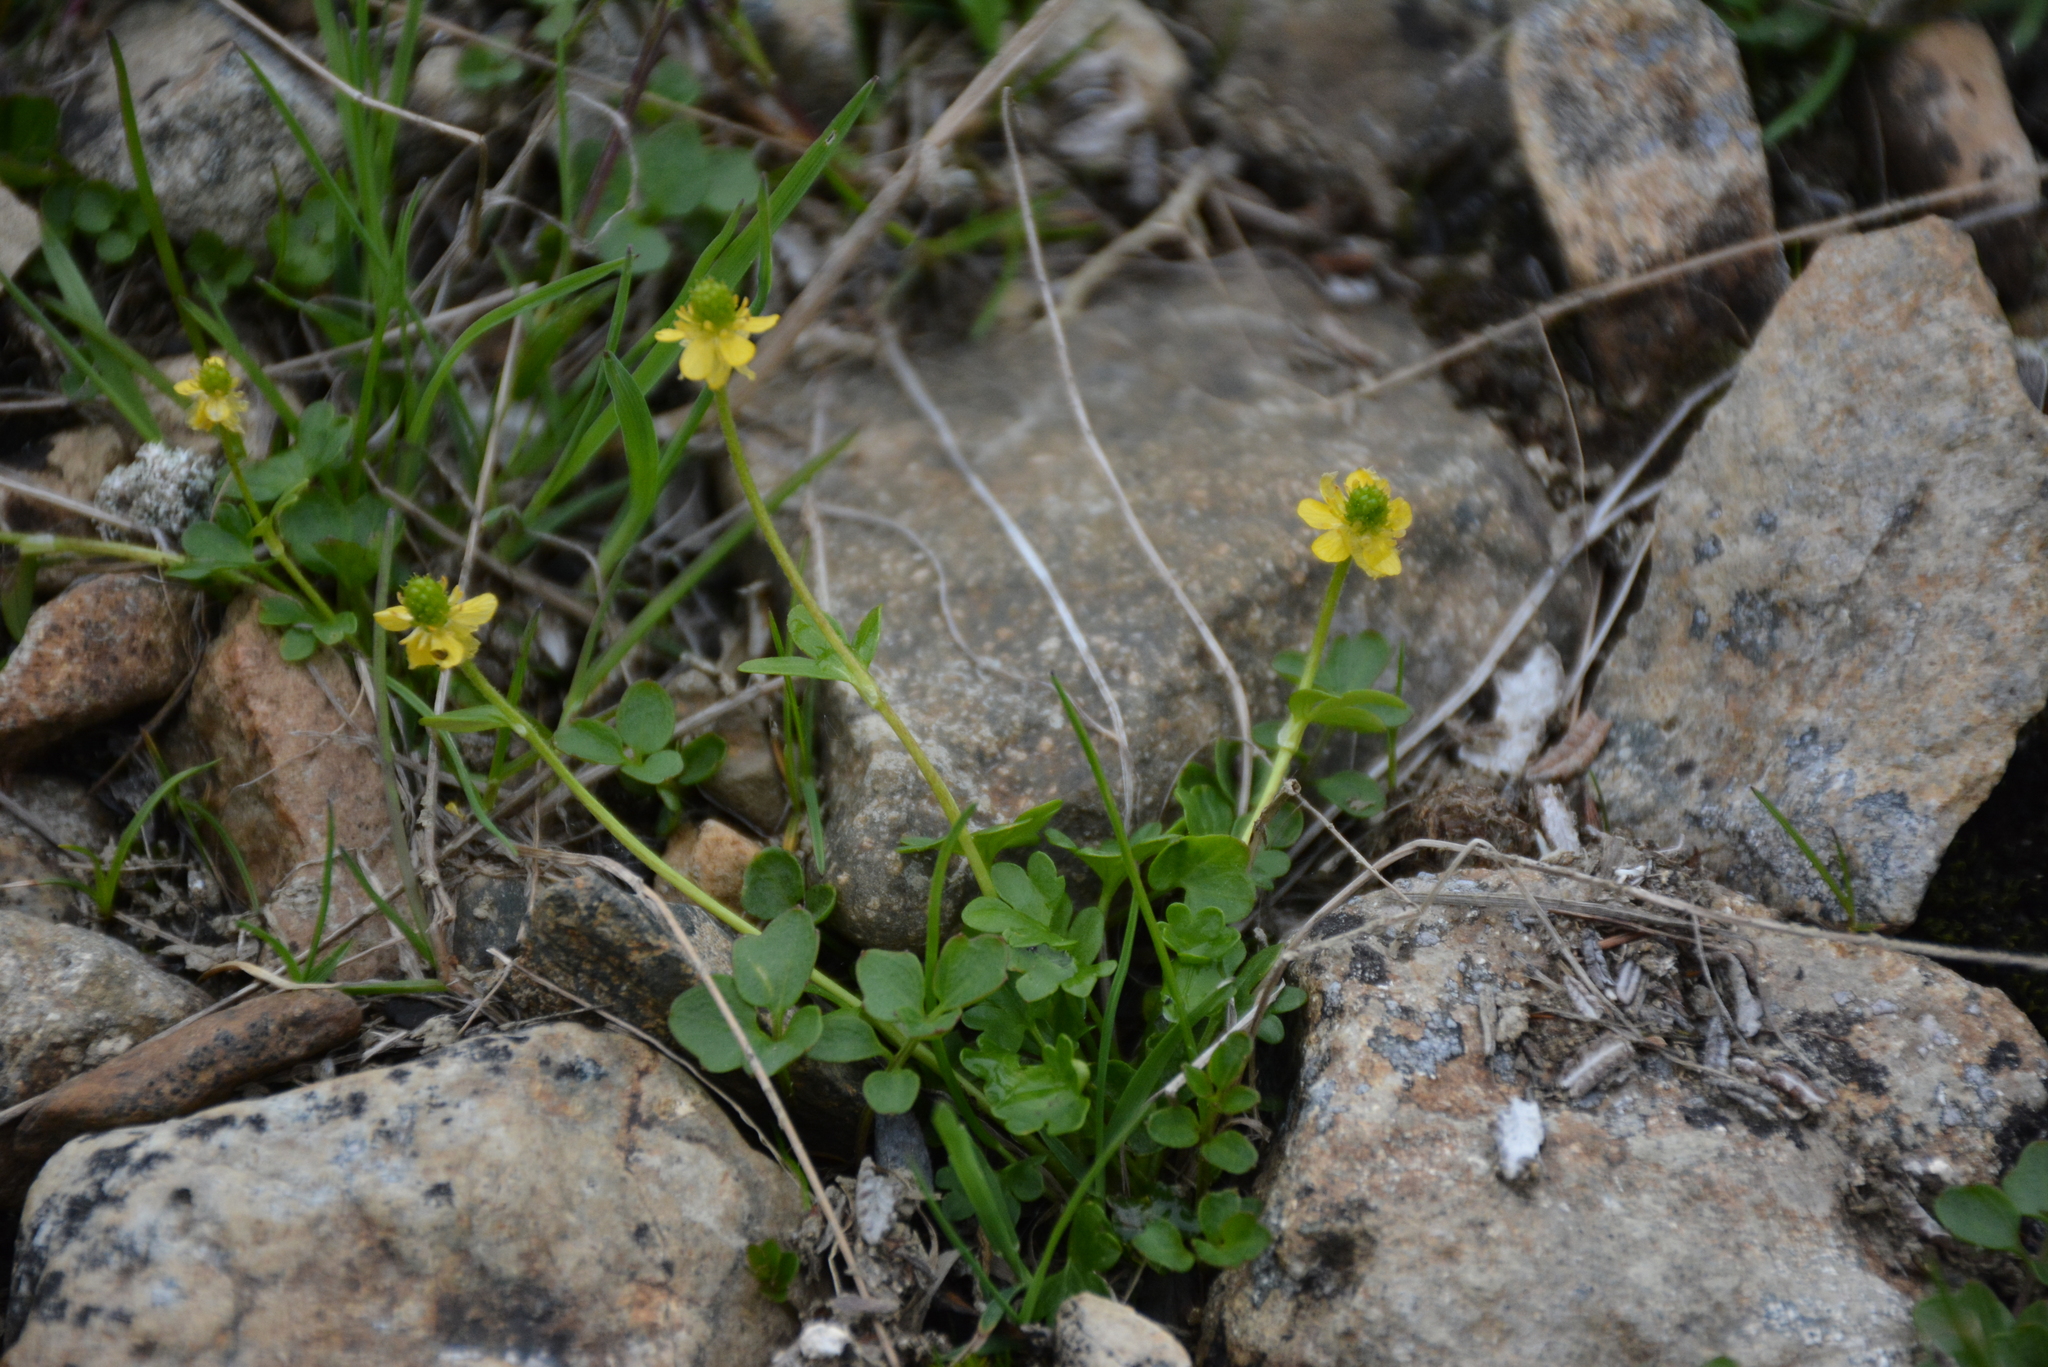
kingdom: Plantae
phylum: Tracheophyta
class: Magnoliopsida
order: Ranunculales
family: Ranunculaceae
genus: Ranunculus
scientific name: Ranunculus pygmaeus
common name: Dwarf buttercup
